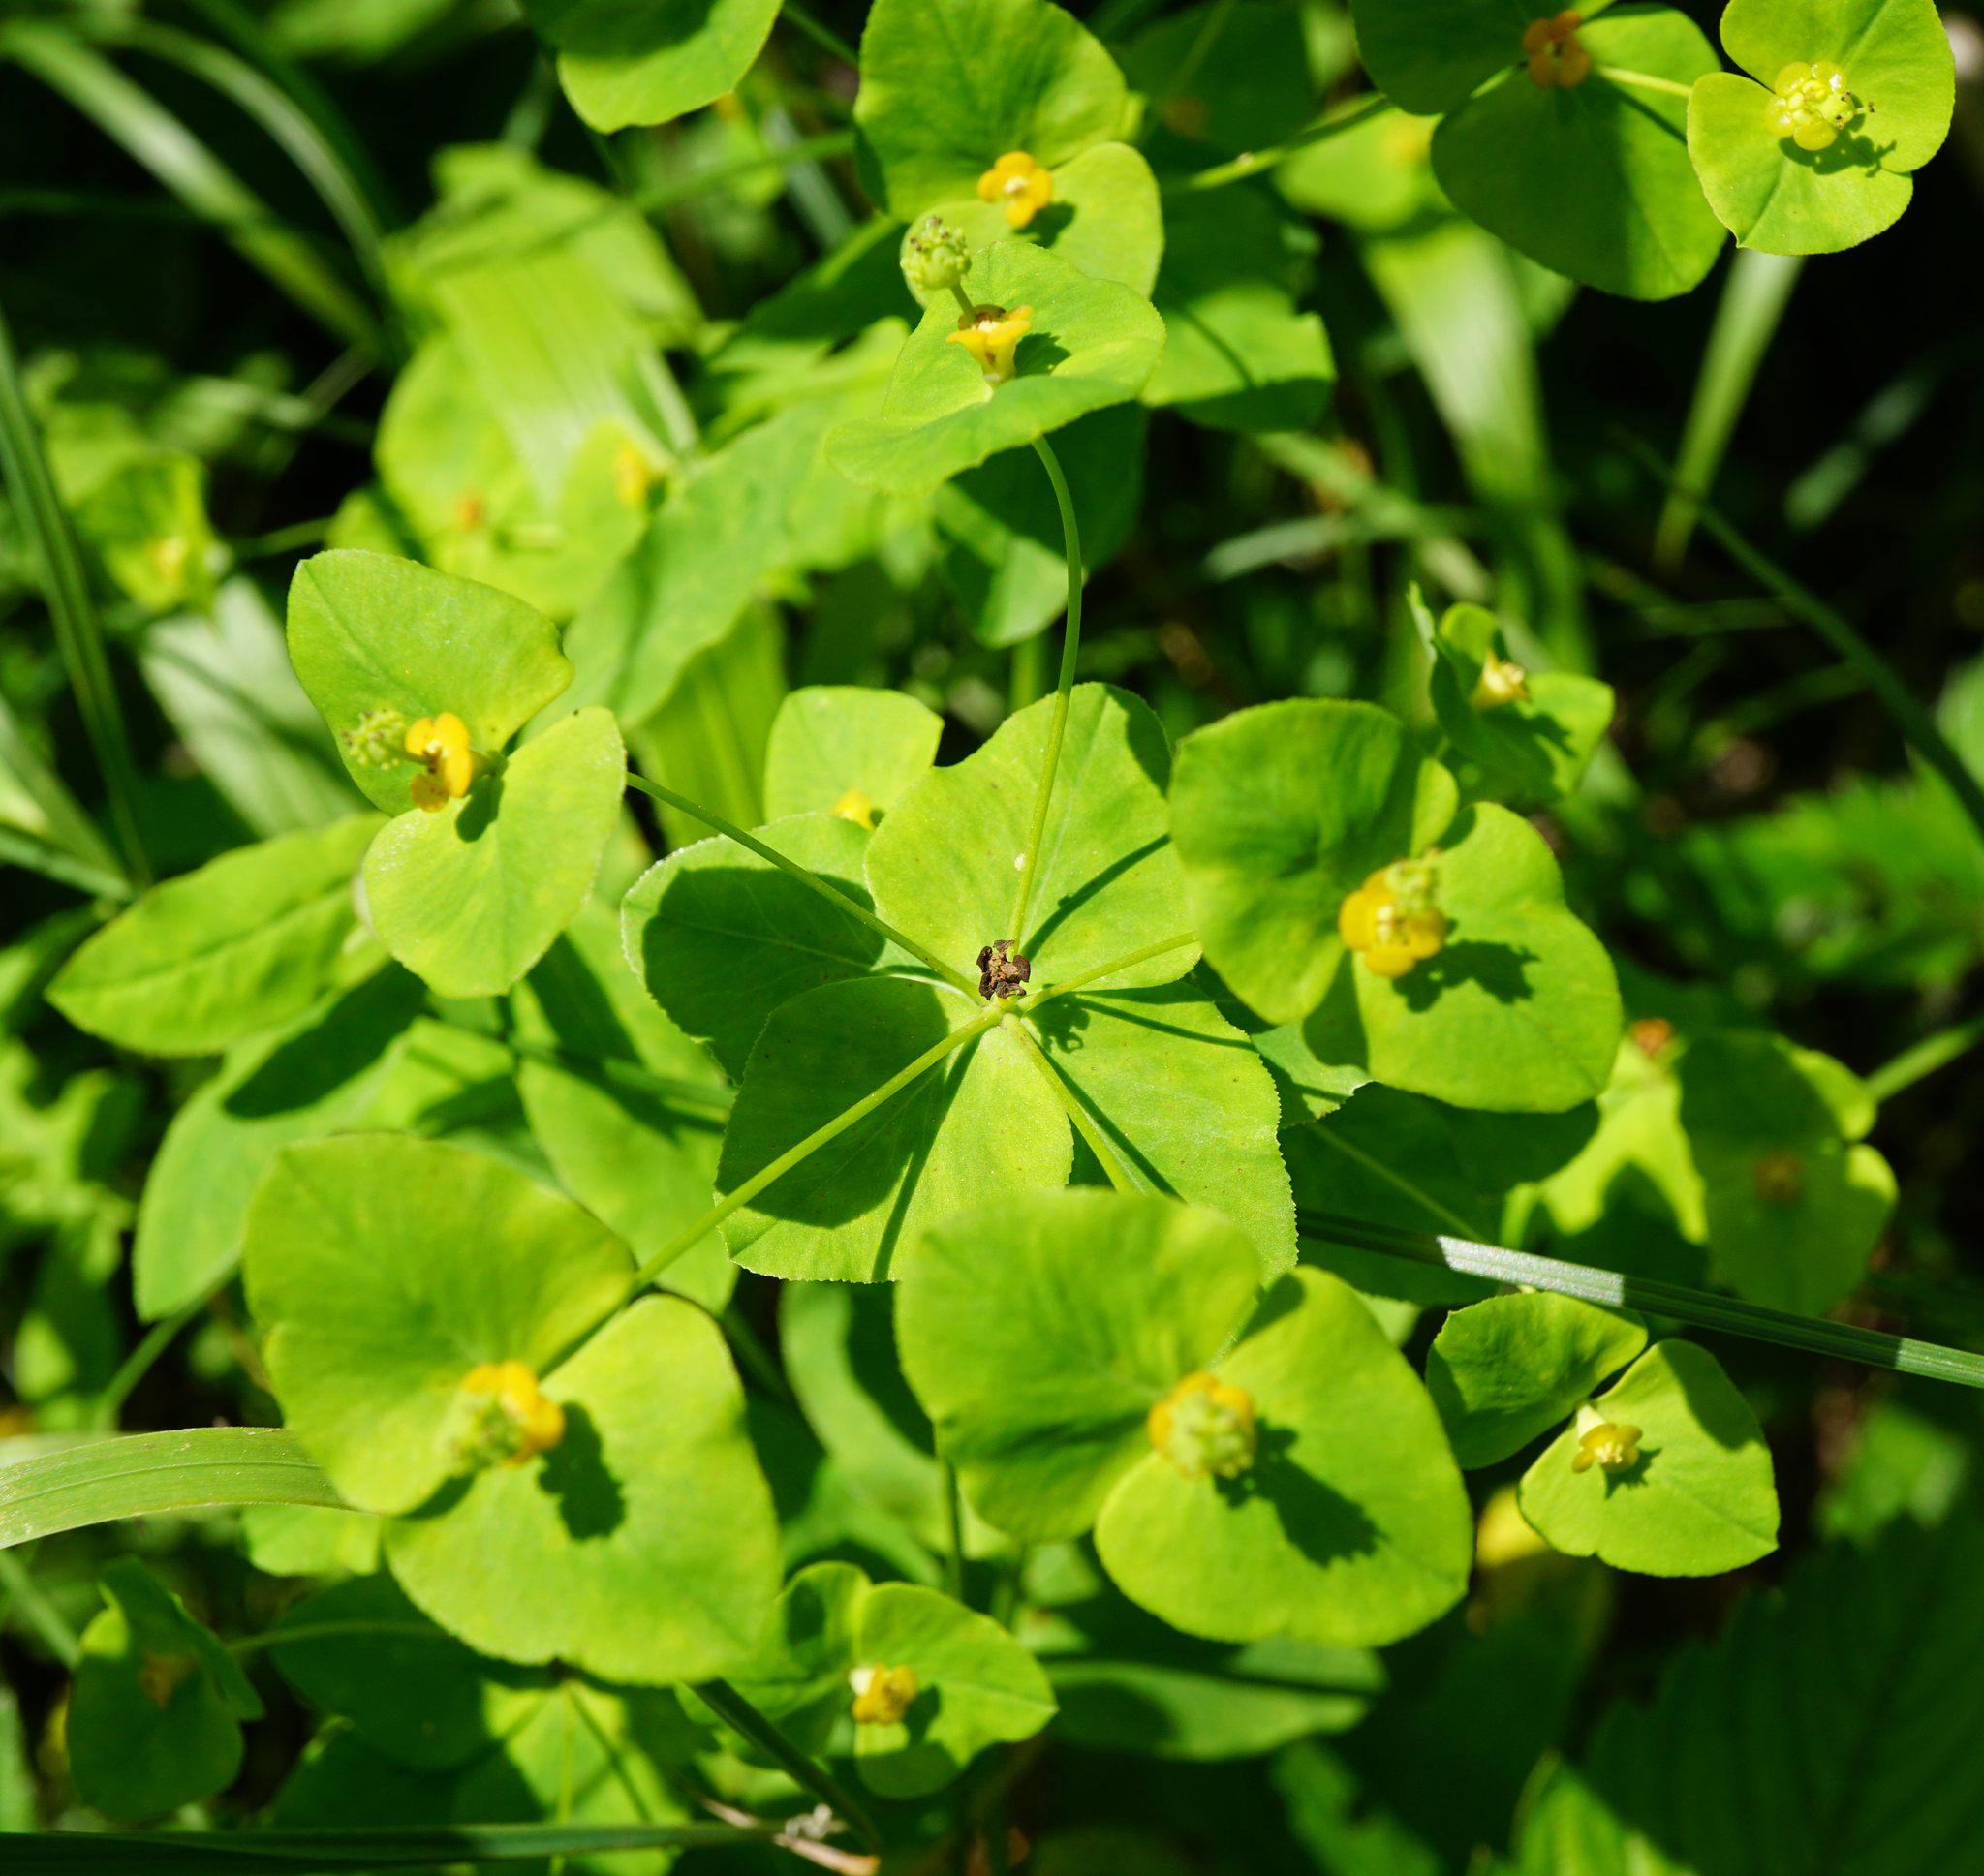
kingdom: Plantae
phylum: Tracheophyta
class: Magnoliopsida
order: Malpighiales
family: Euphorbiaceae
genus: Euphorbia
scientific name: Euphorbia angulata
